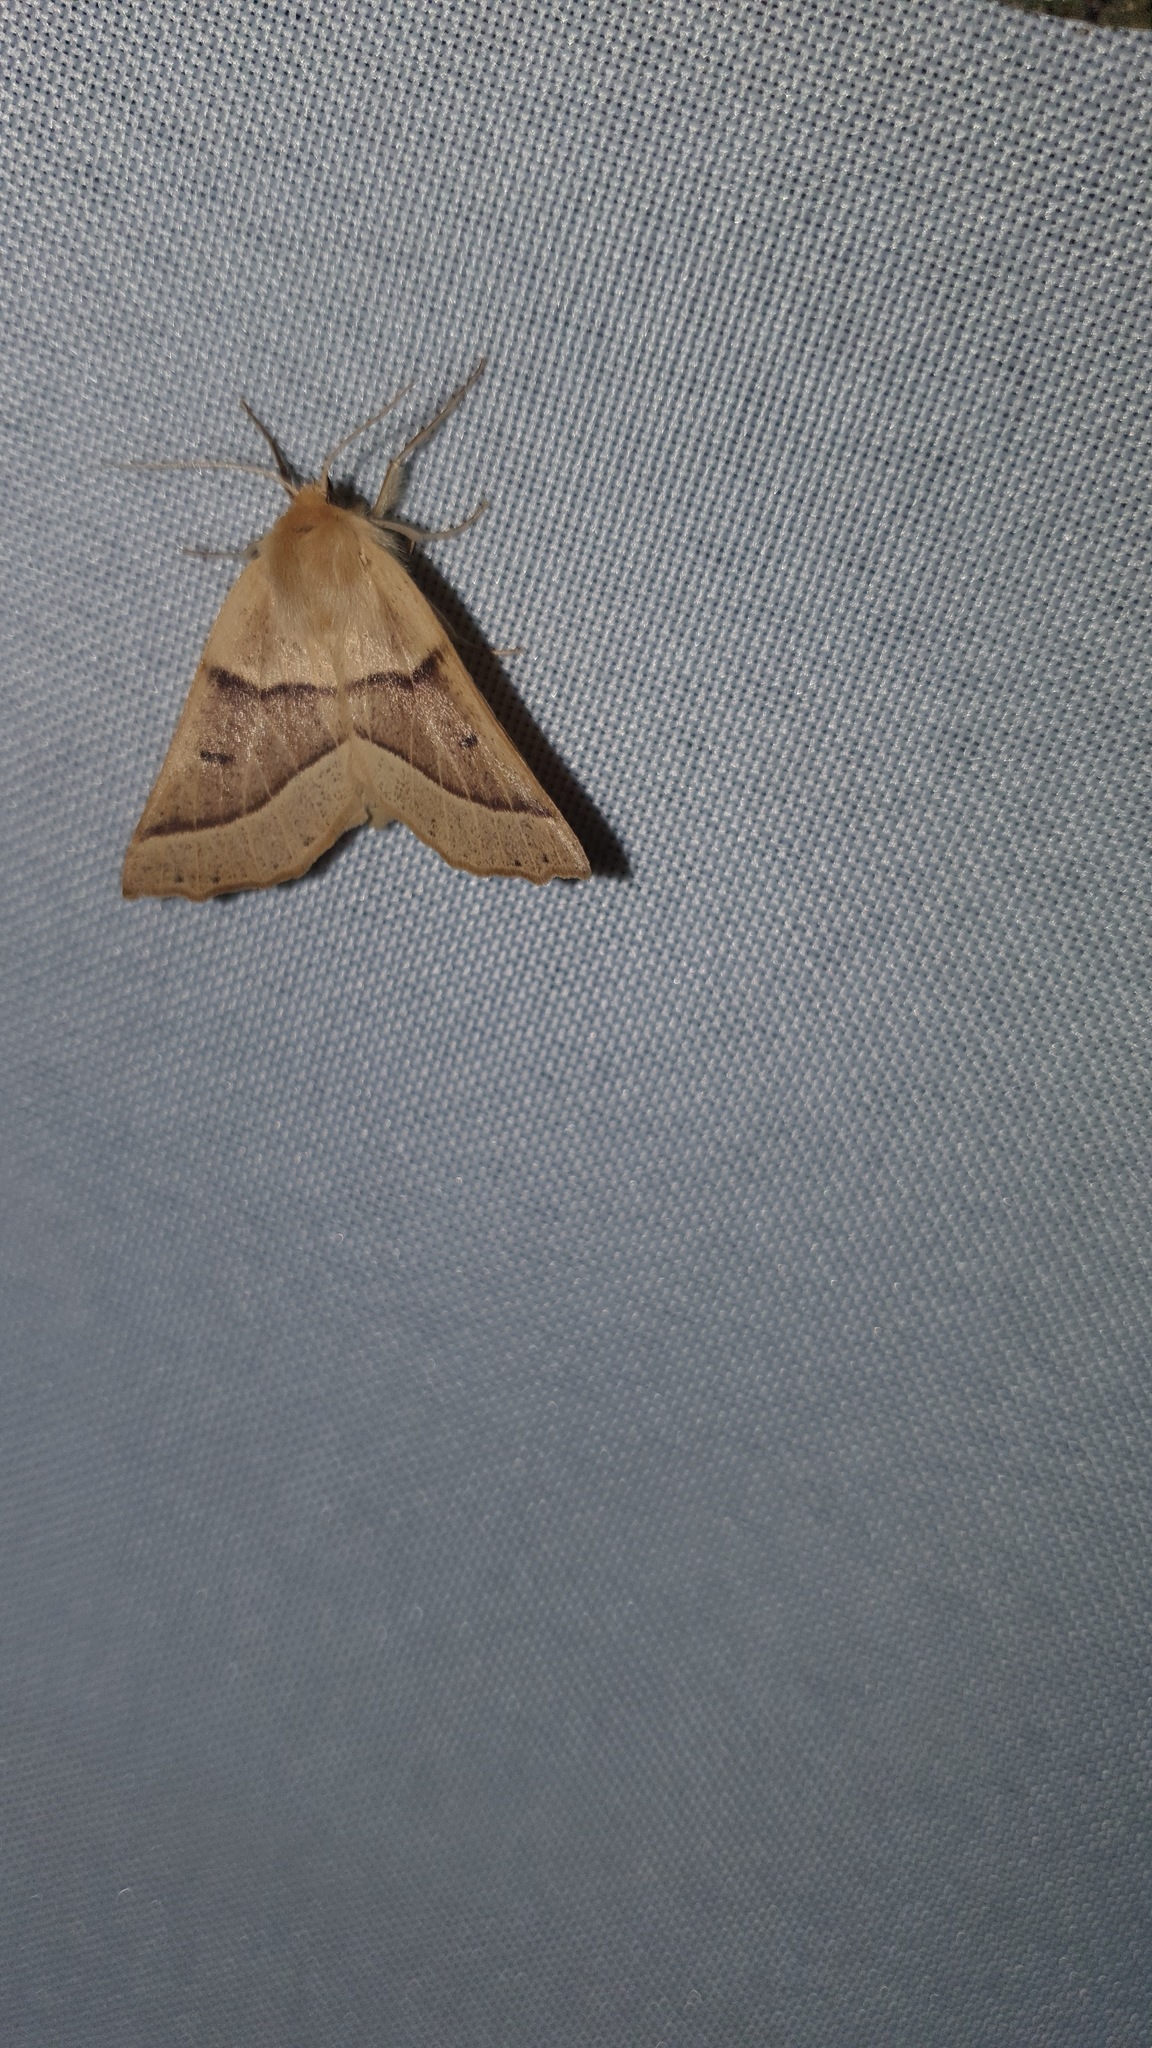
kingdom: Animalia
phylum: Arthropoda
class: Insecta
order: Lepidoptera
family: Geometridae
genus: Crocallis
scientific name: Crocallis elinguaria
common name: Scalloped oak
